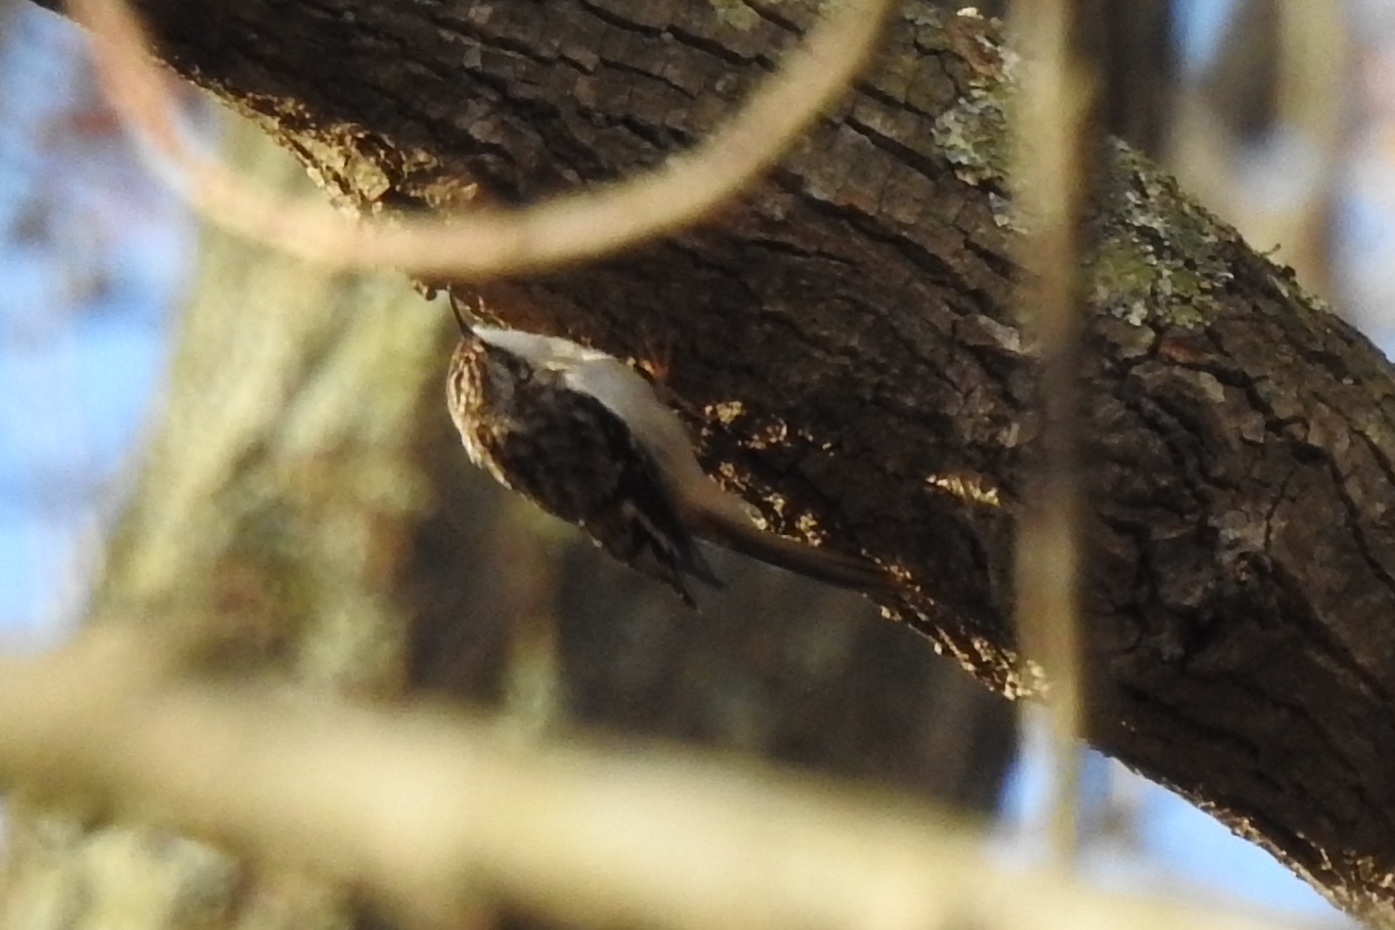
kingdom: Animalia
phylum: Chordata
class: Aves
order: Passeriformes
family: Certhiidae
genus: Certhia
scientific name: Certhia americana
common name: Brown creeper
